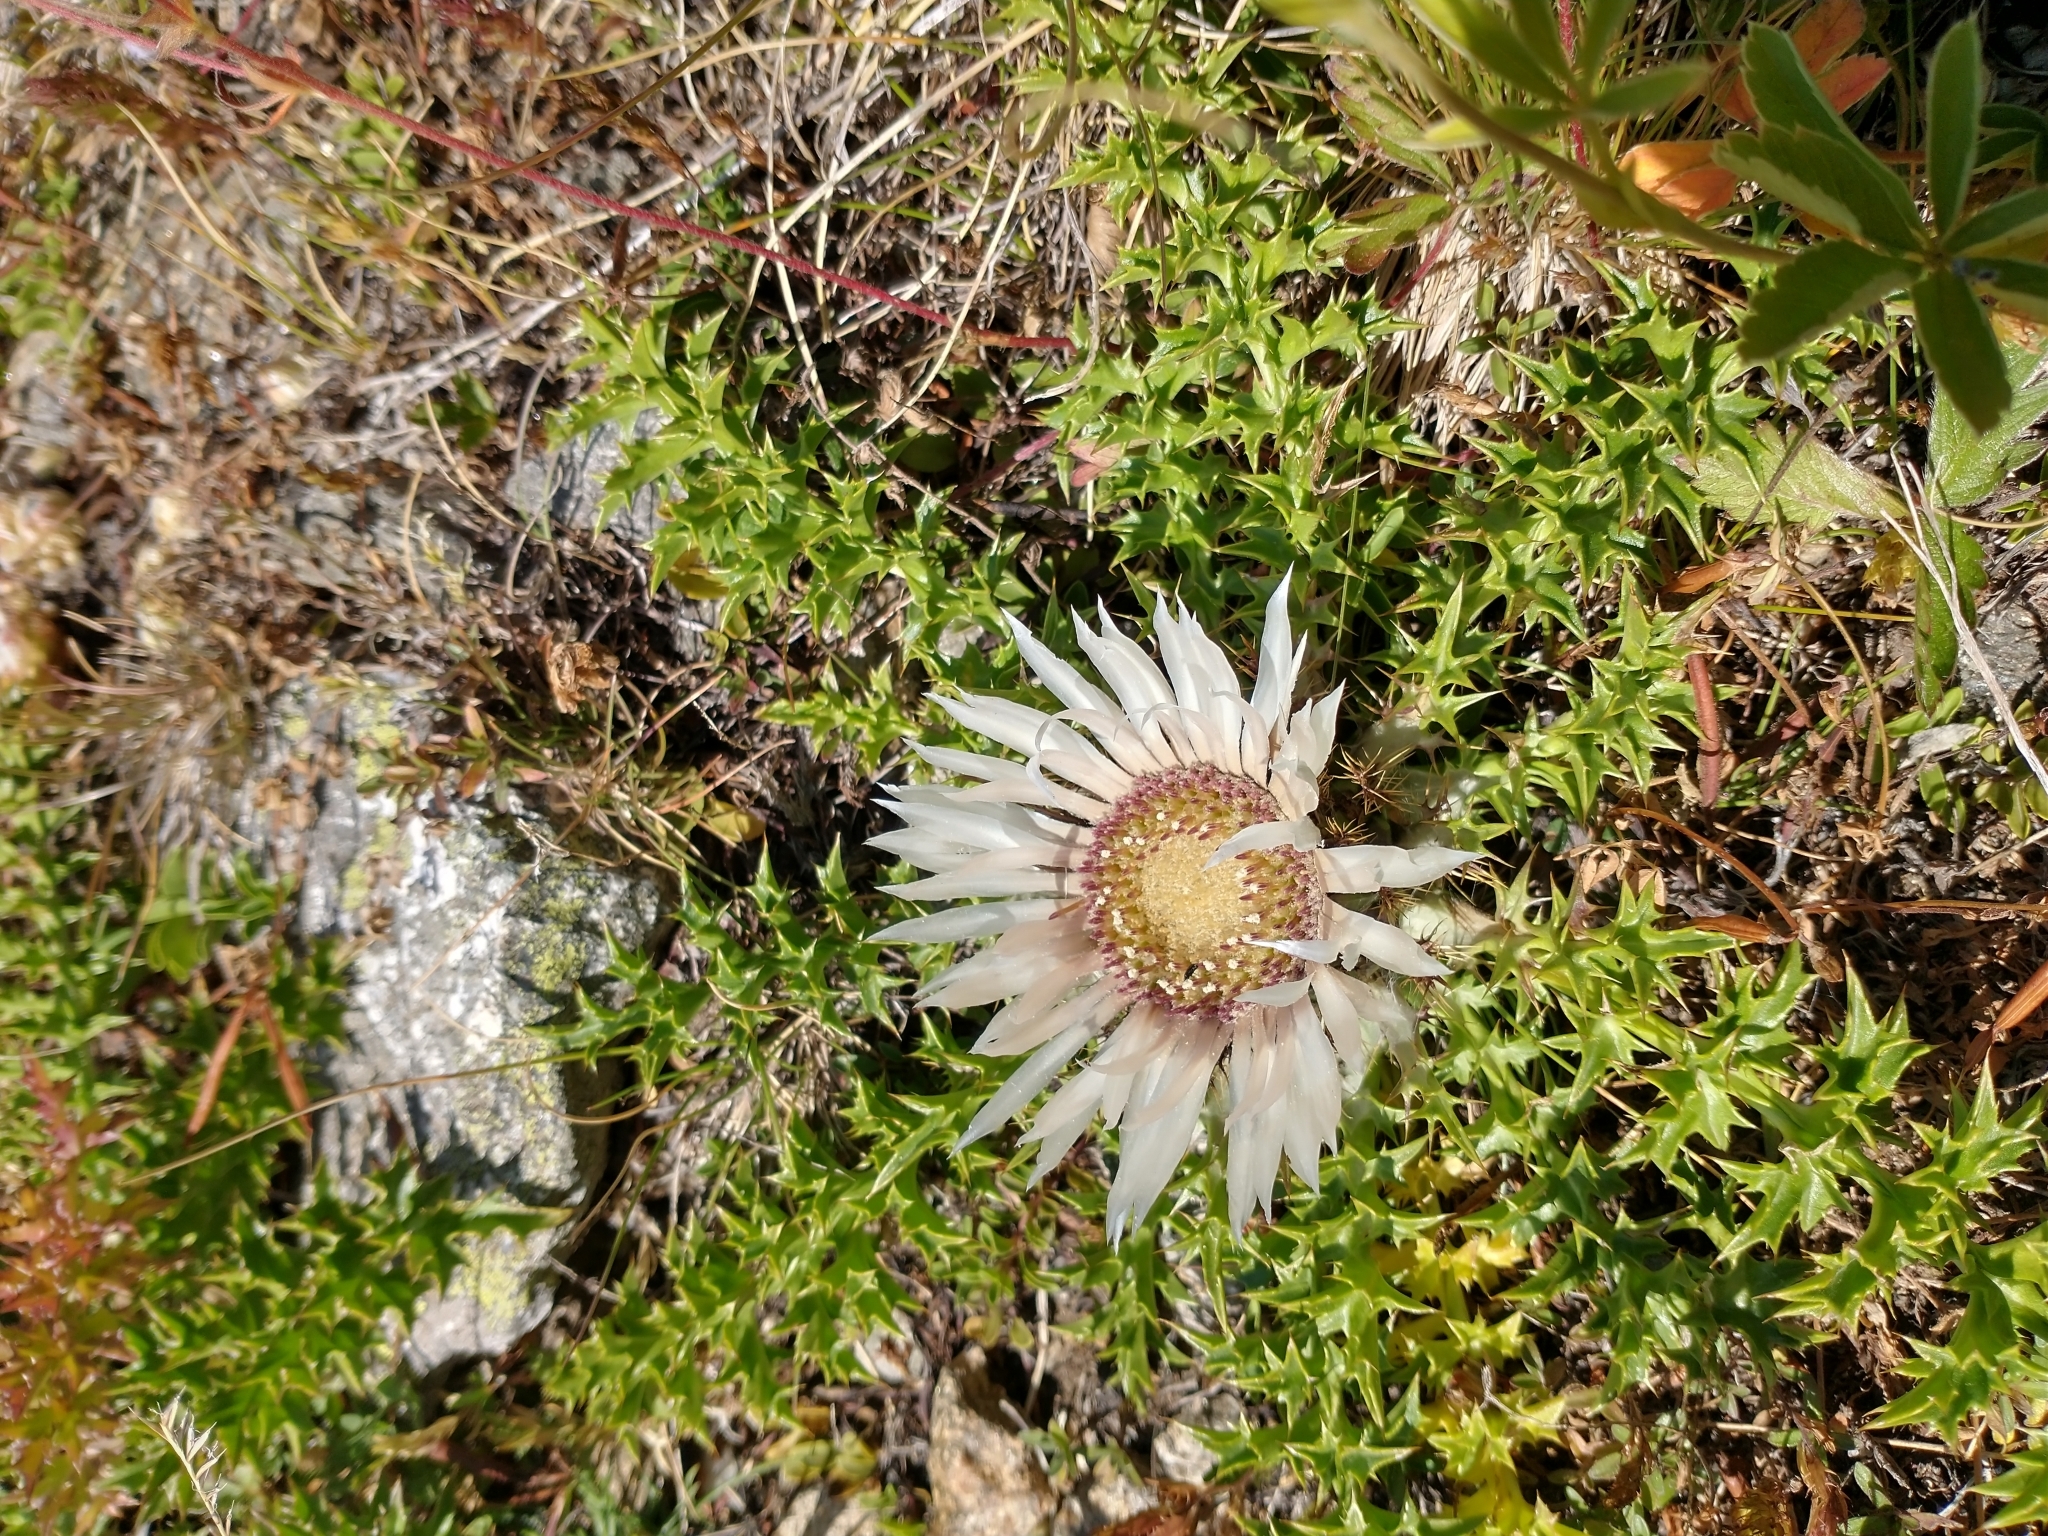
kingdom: Plantae
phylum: Tracheophyta
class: Magnoliopsida
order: Asterales
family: Asteraceae
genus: Carlina
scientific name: Carlina acaulis
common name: Stemless carline thistle
